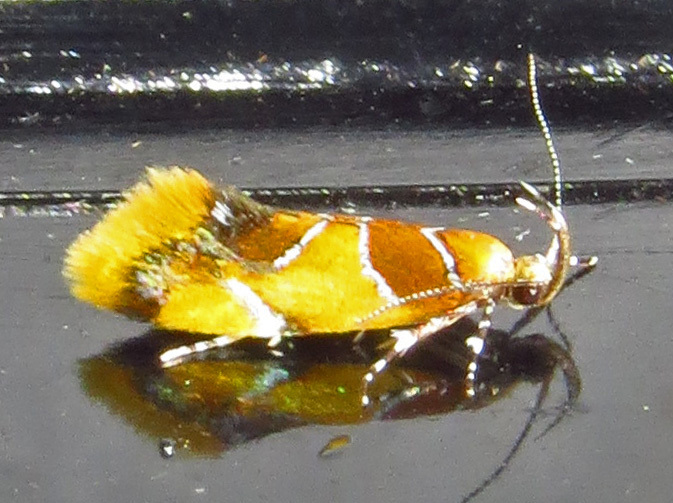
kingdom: Animalia
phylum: Arthropoda
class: Insecta
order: Lepidoptera
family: Oecophoridae
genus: Callima
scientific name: Callima argenticinctella
